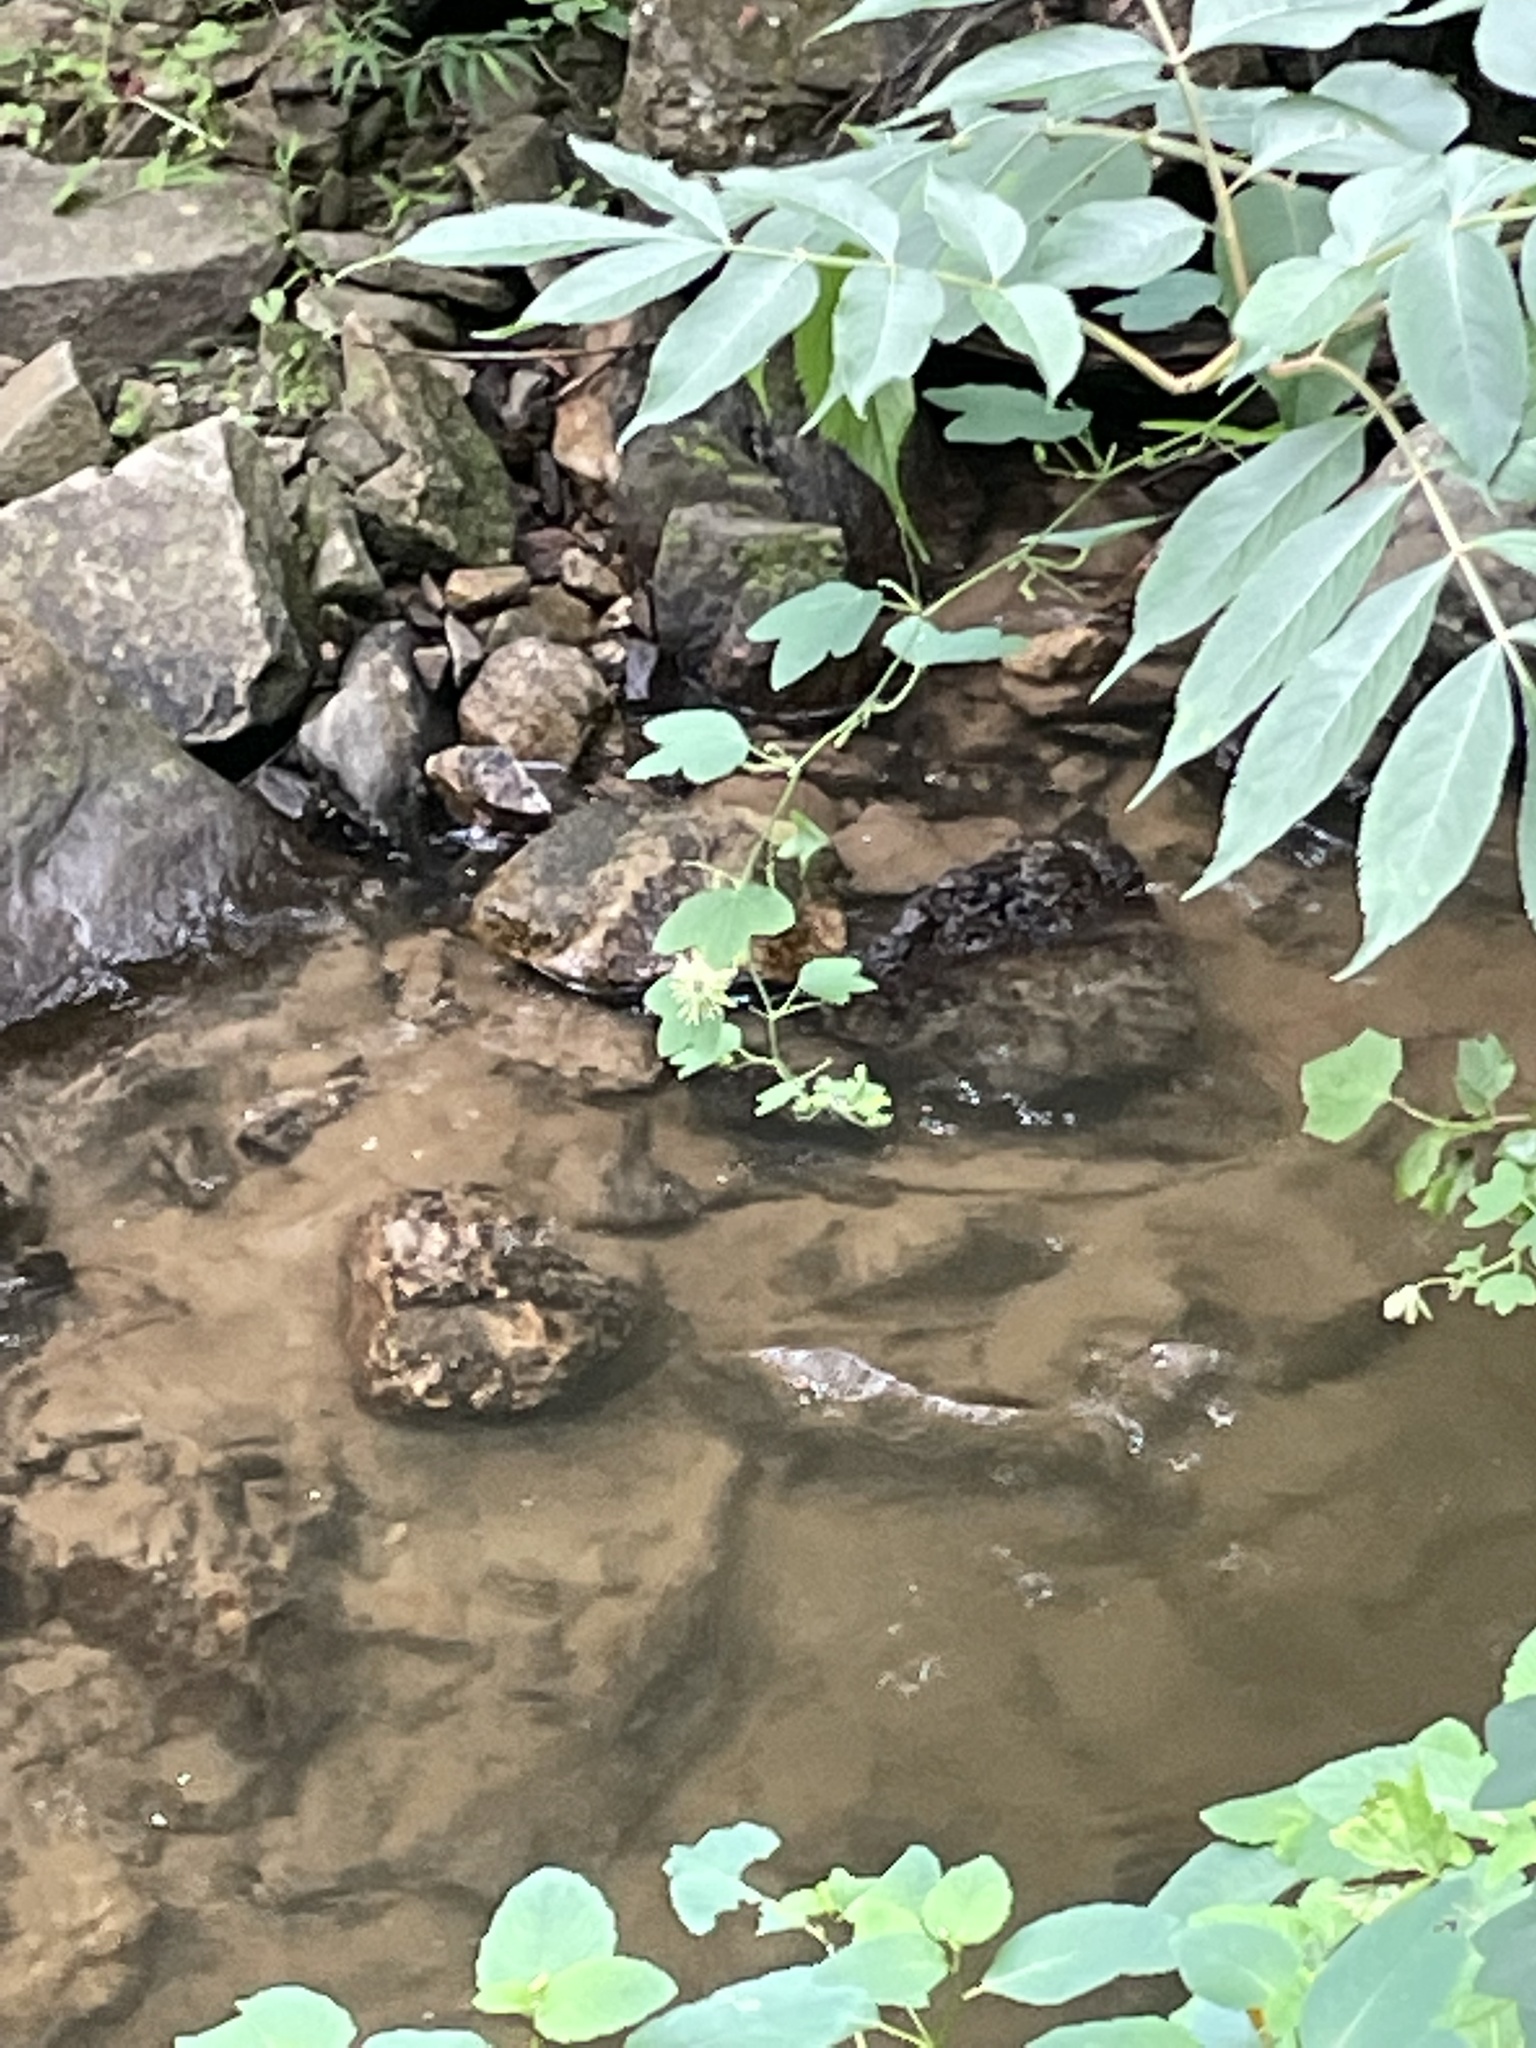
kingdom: Plantae
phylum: Tracheophyta
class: Magnoliopsida
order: Malpighiales
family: Passifloraceae
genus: Passiflora
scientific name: Passiflora lutea
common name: Yellow passionflower
